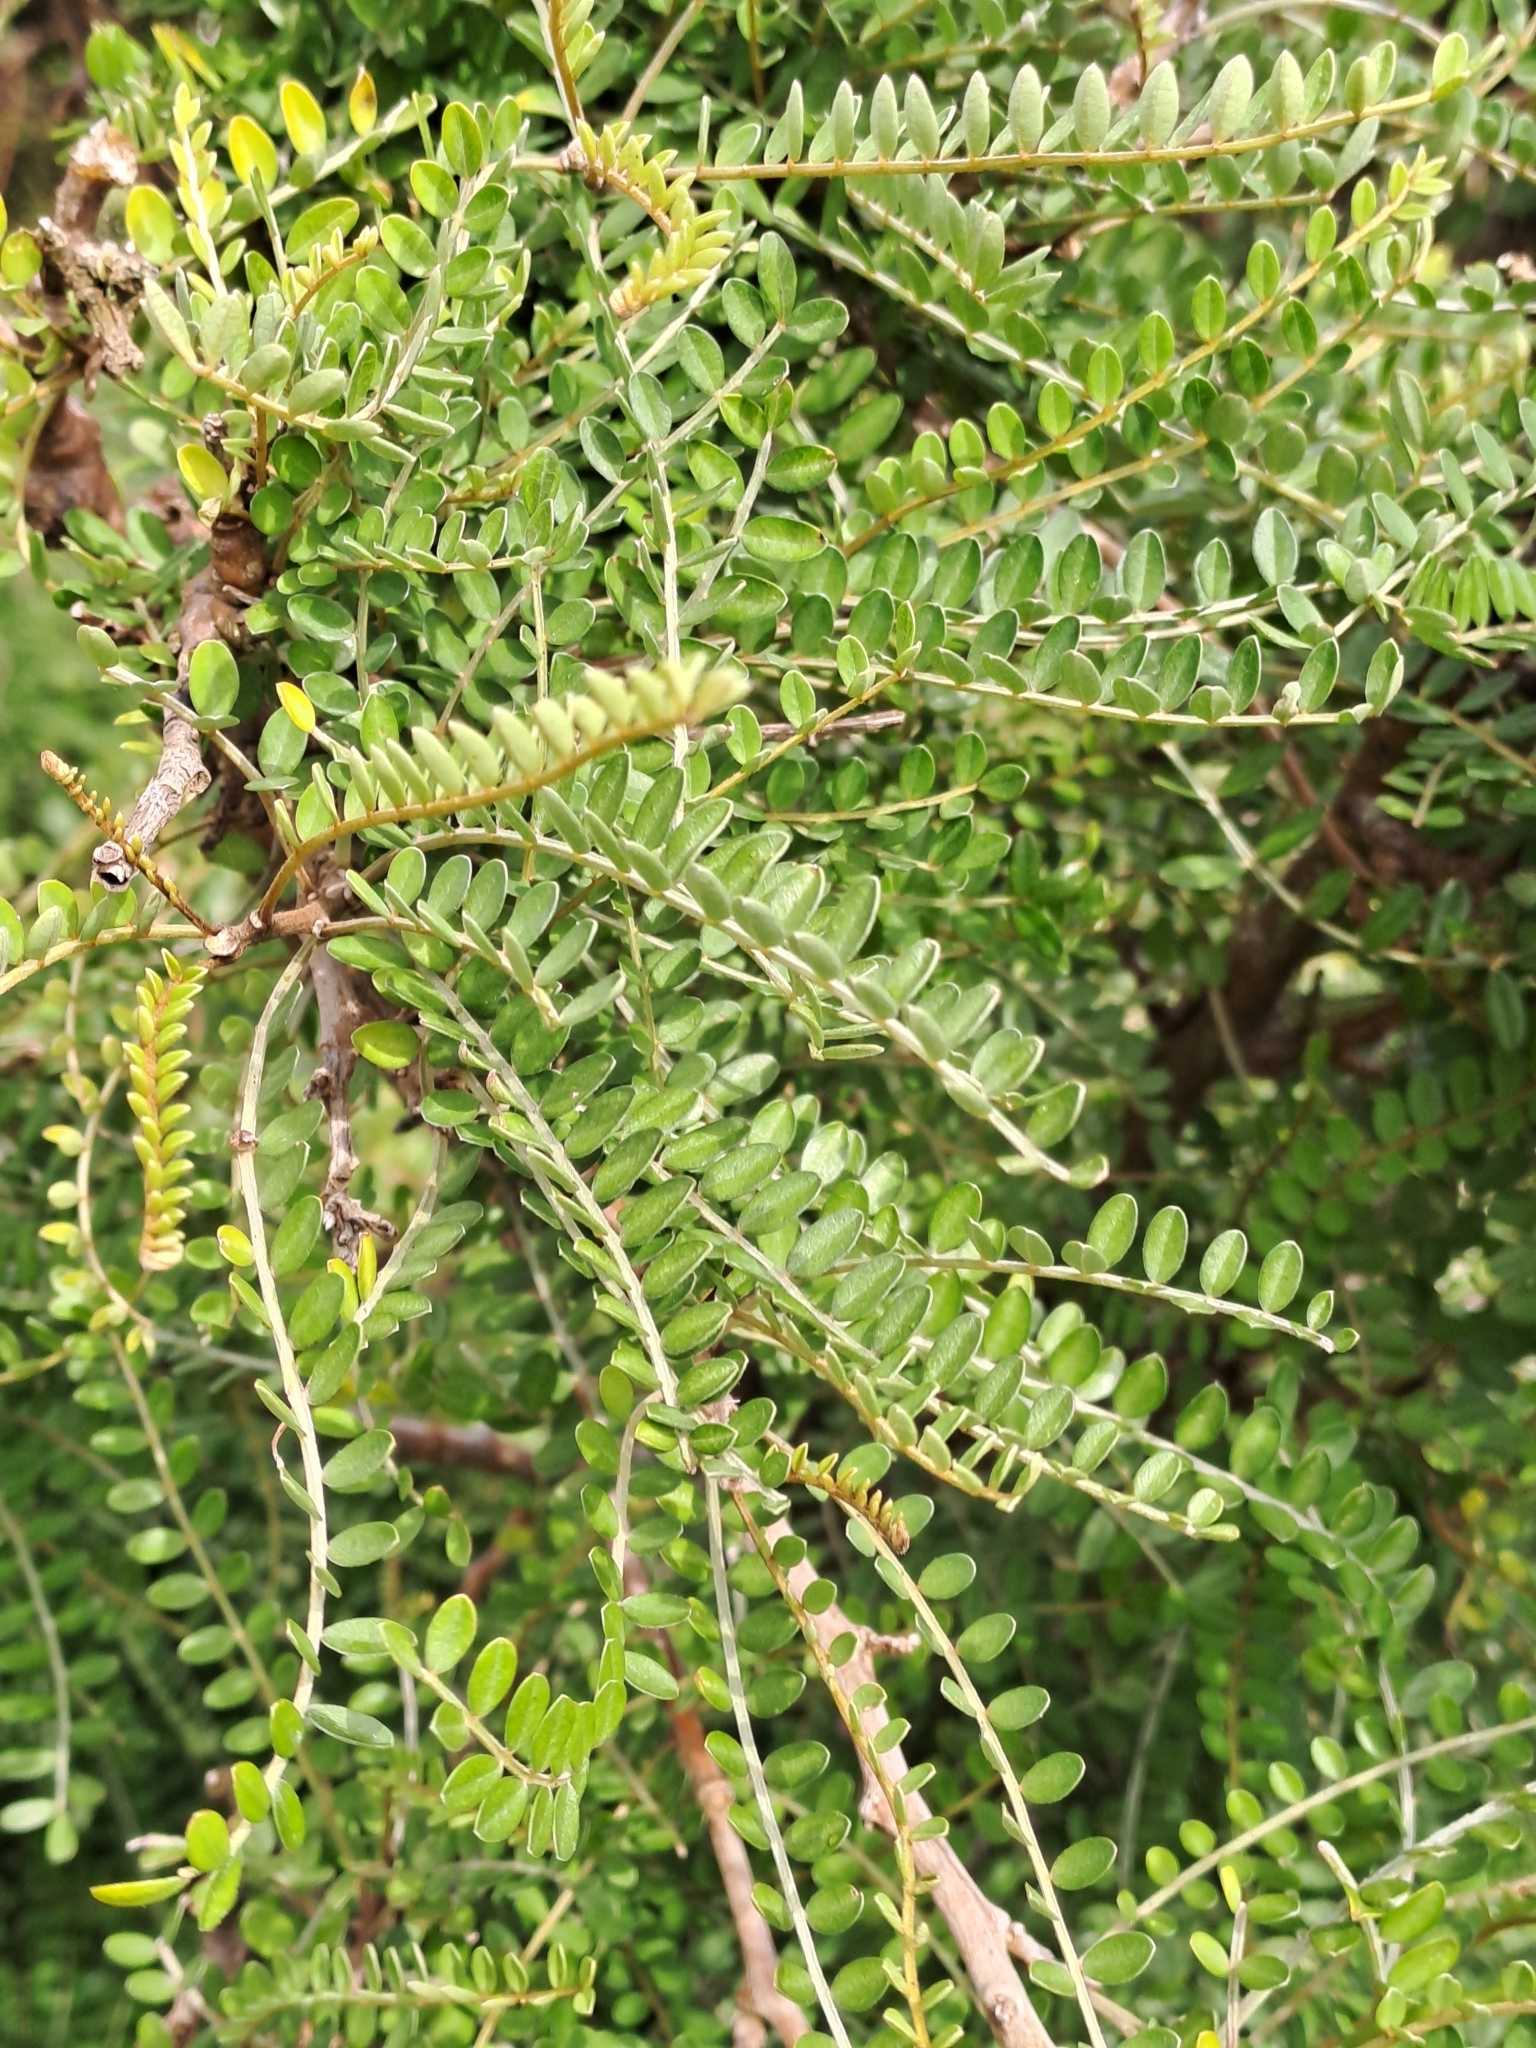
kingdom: Plantae
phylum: Tracheophyta
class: Magnoliopsida
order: Fabales
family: Fabaceae
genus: Sophora
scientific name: Sophora microphylla
